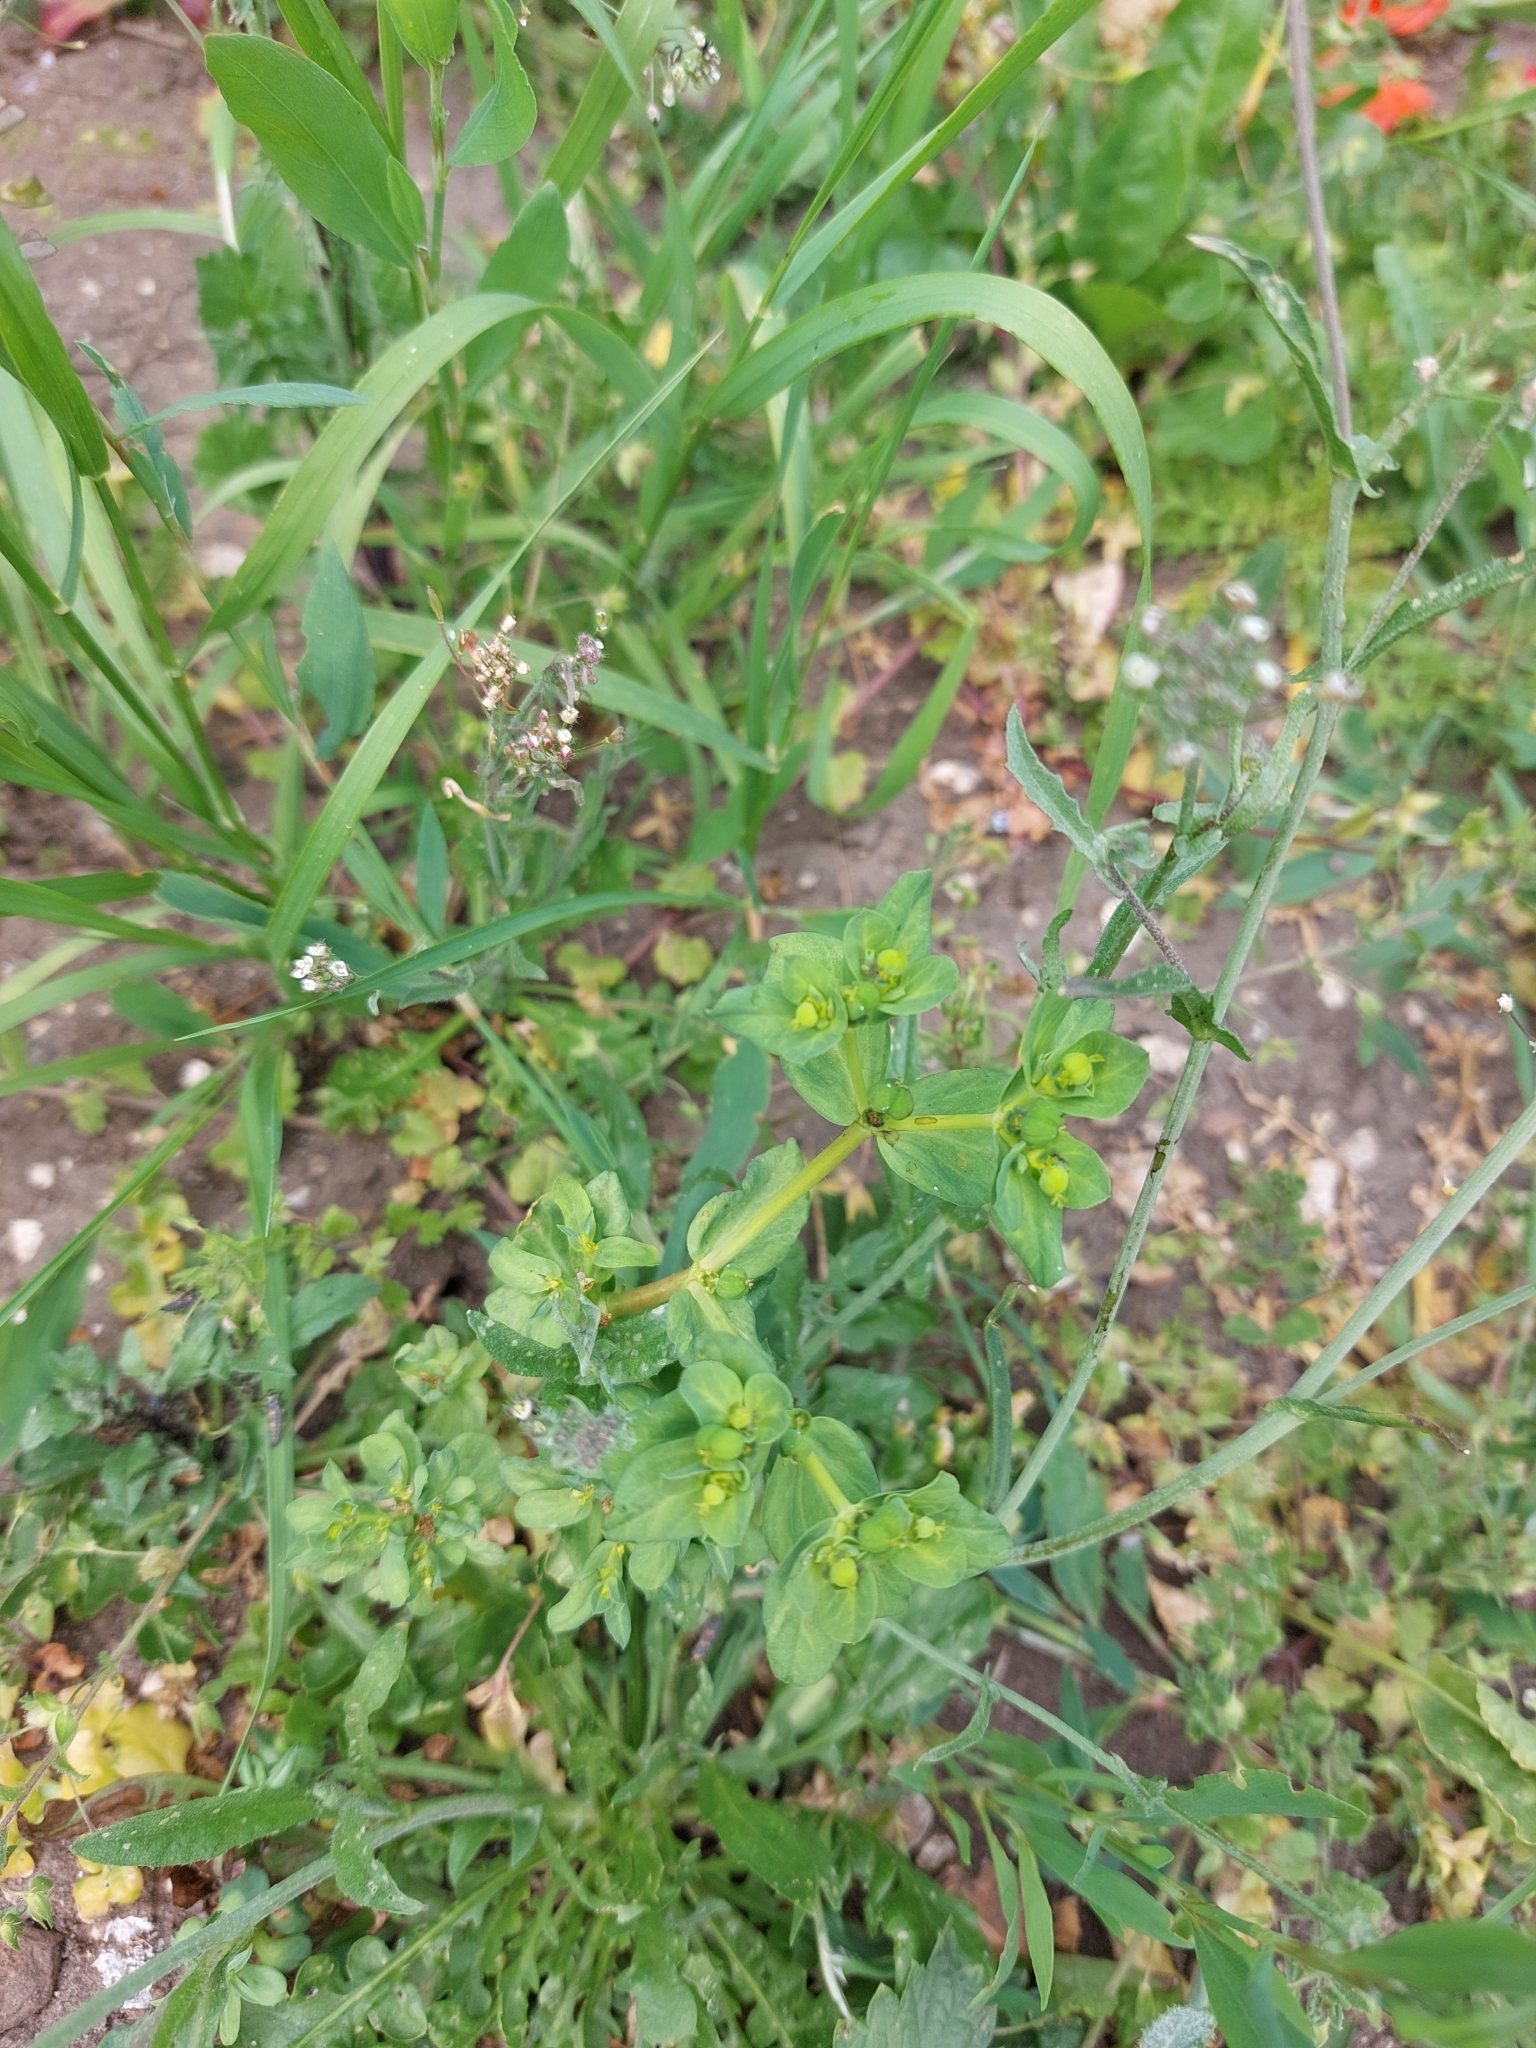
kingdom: Plantae
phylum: Tracheophyta
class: Magnoliopsida
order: Malpighiales
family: Euphorbiaceae
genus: Euphorbia
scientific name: Euphorbia helioscopia
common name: Sun spurge
